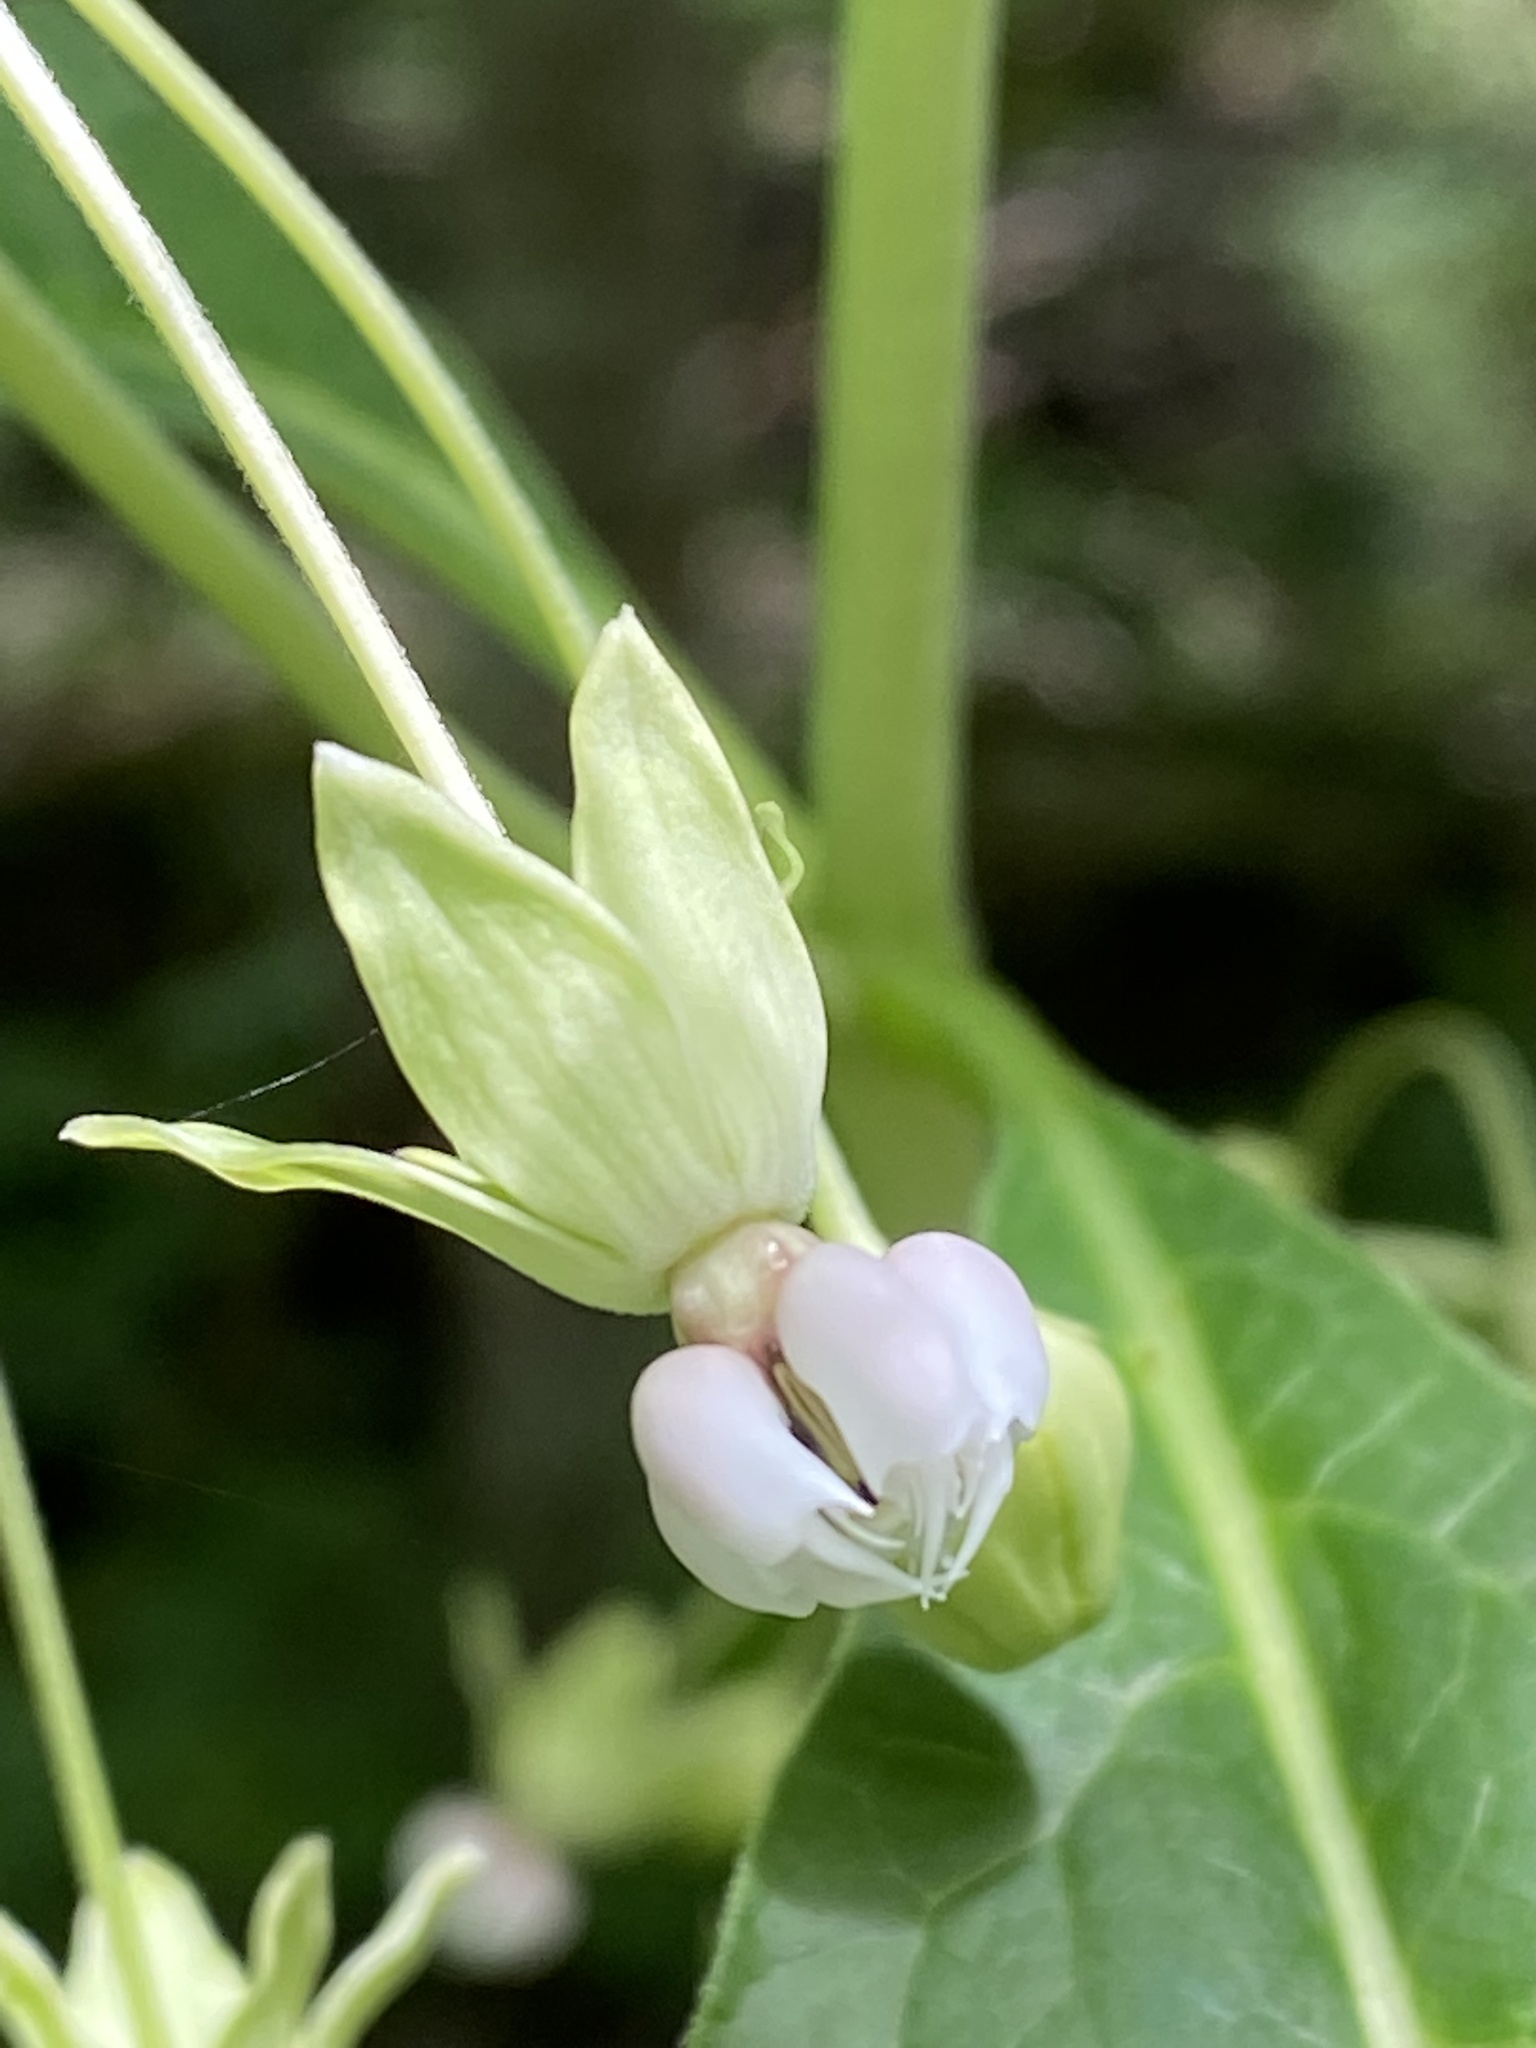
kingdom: Plantae
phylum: Tracheophyta
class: Magnoliopsida
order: Gentianales
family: Apocynaceae
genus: Asclepias
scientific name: Asclepias exaltata
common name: Poke milkweed
